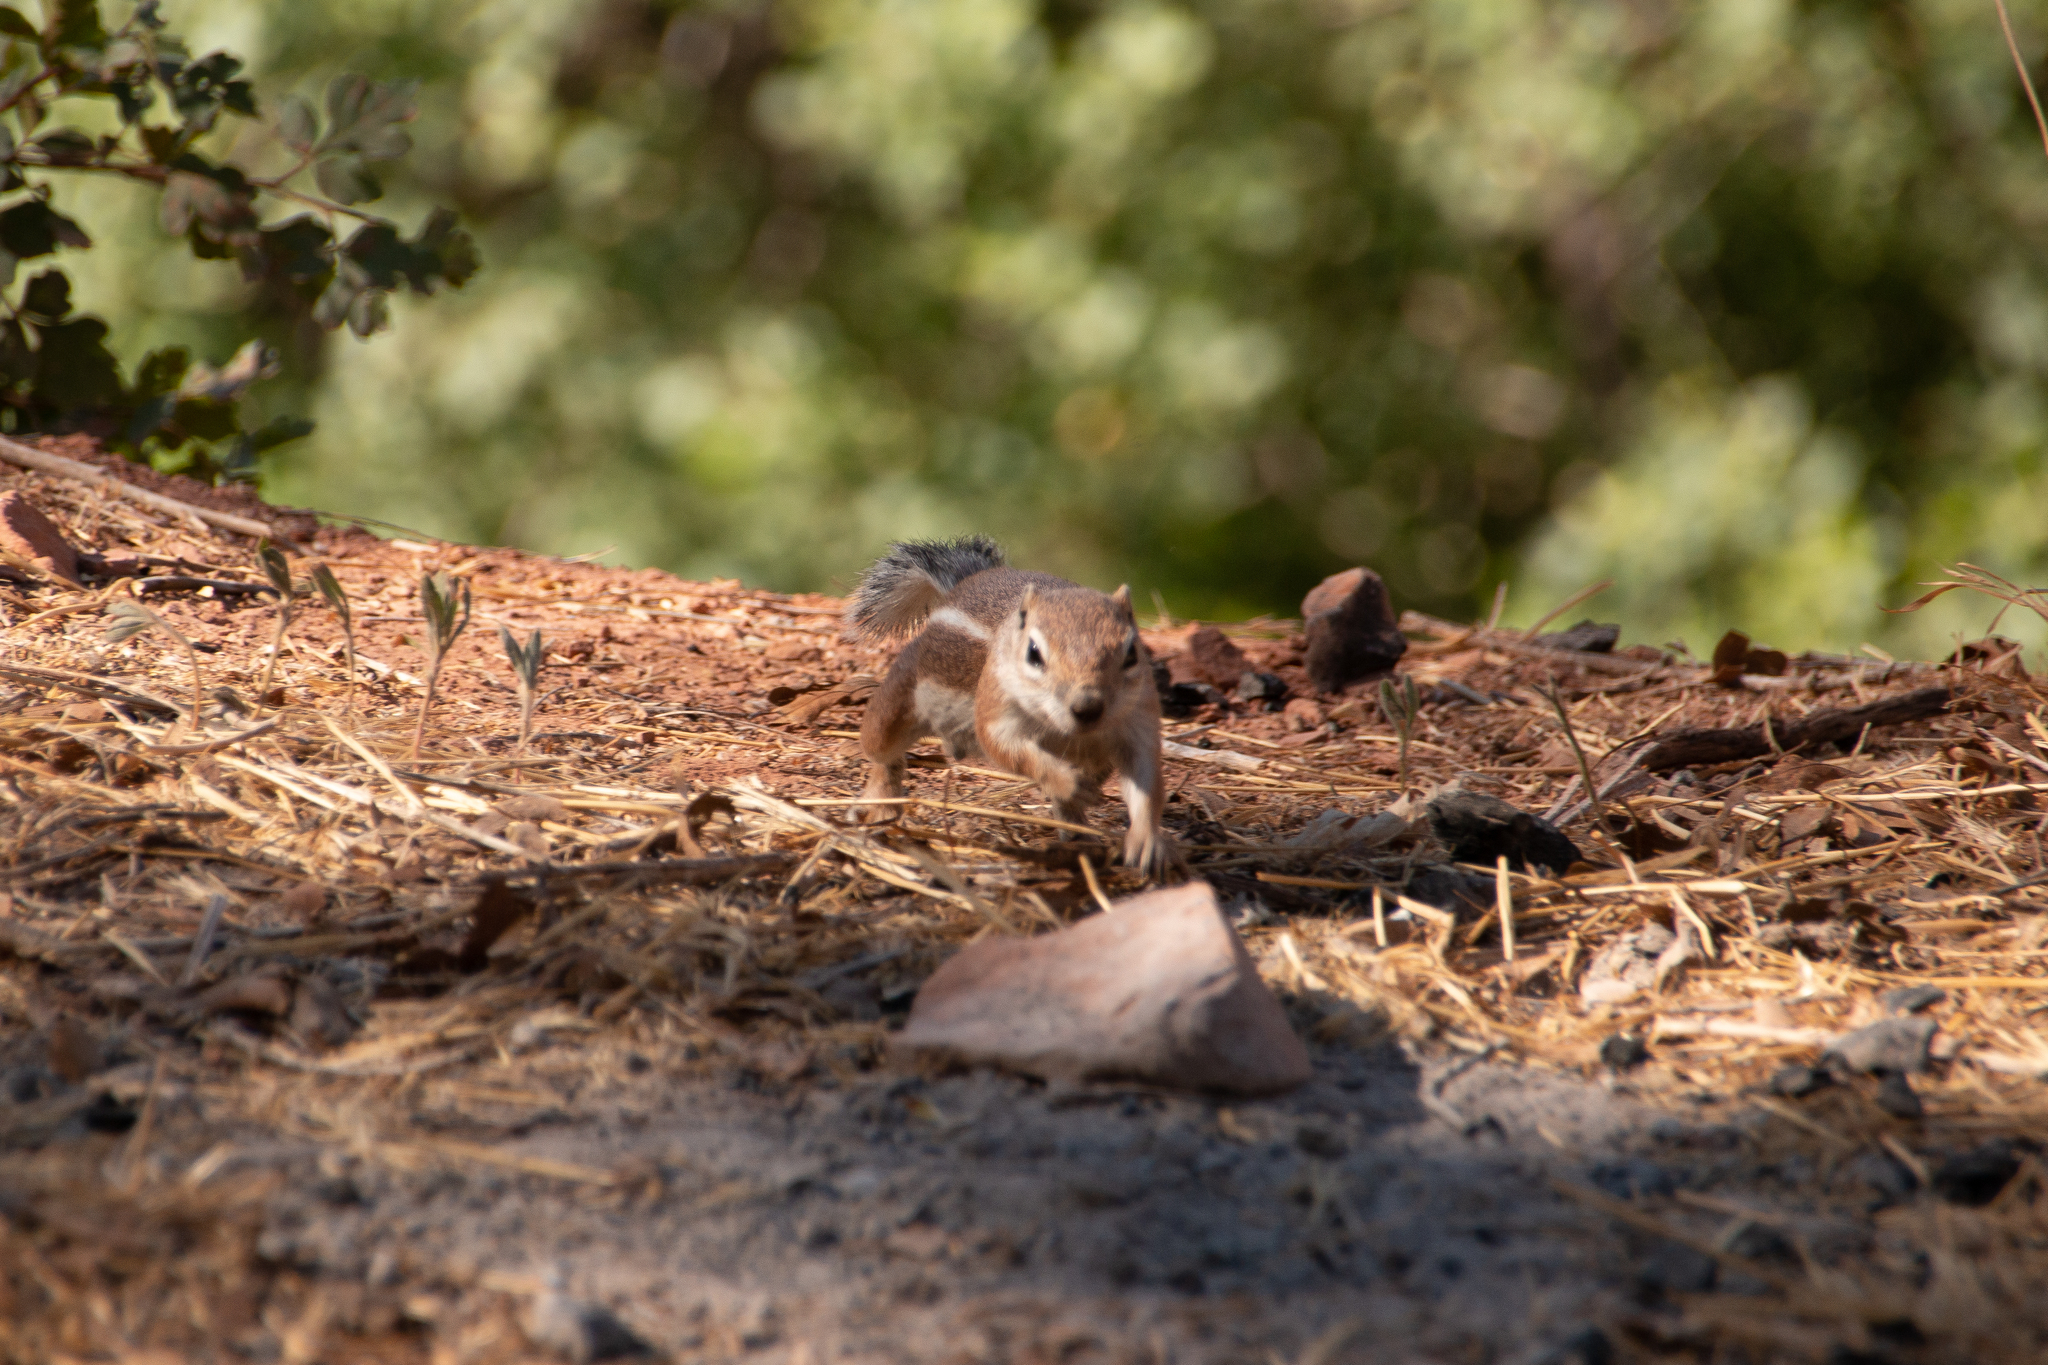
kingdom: Animalia
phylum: Chordata
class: Mammalia
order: Rodentia
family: Sciuridae
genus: Ammospermophilus
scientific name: Ammospermophilus leucurus
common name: White-tailed antelope squirrel
